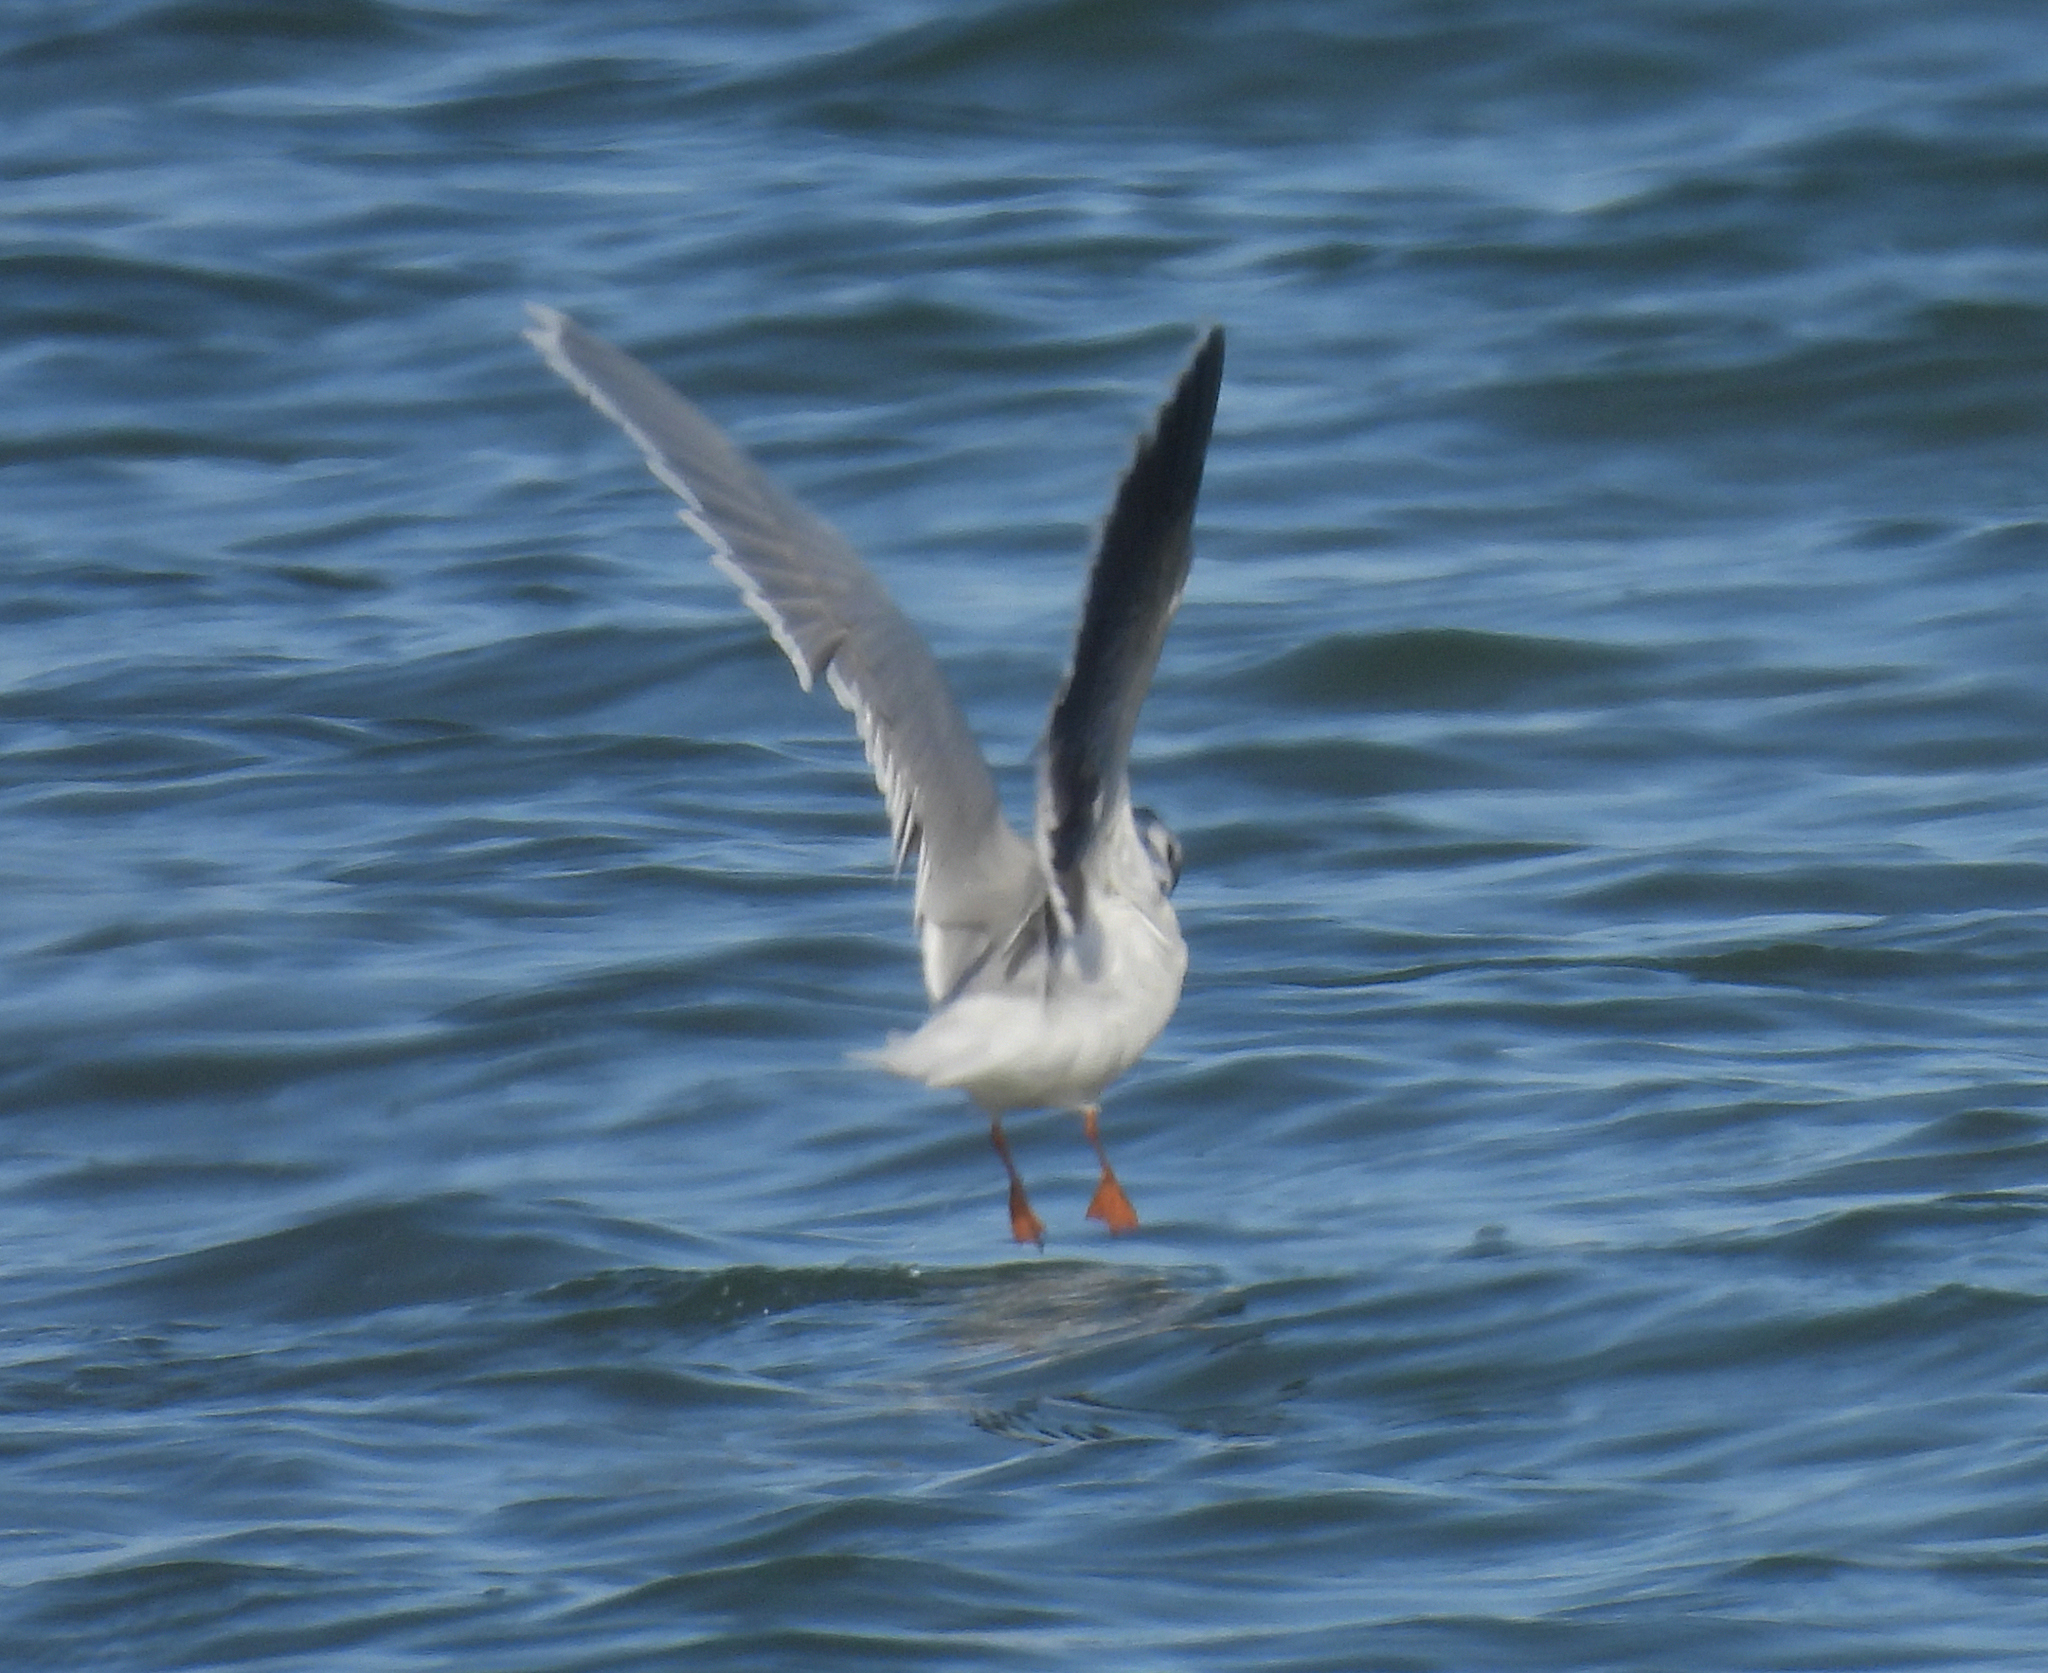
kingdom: Animalia
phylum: Chordata
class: Aves
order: Charadriiformes
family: Laridae
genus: Hydrocoloeus
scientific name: Hydrocoloeus minutus
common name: Little gull
